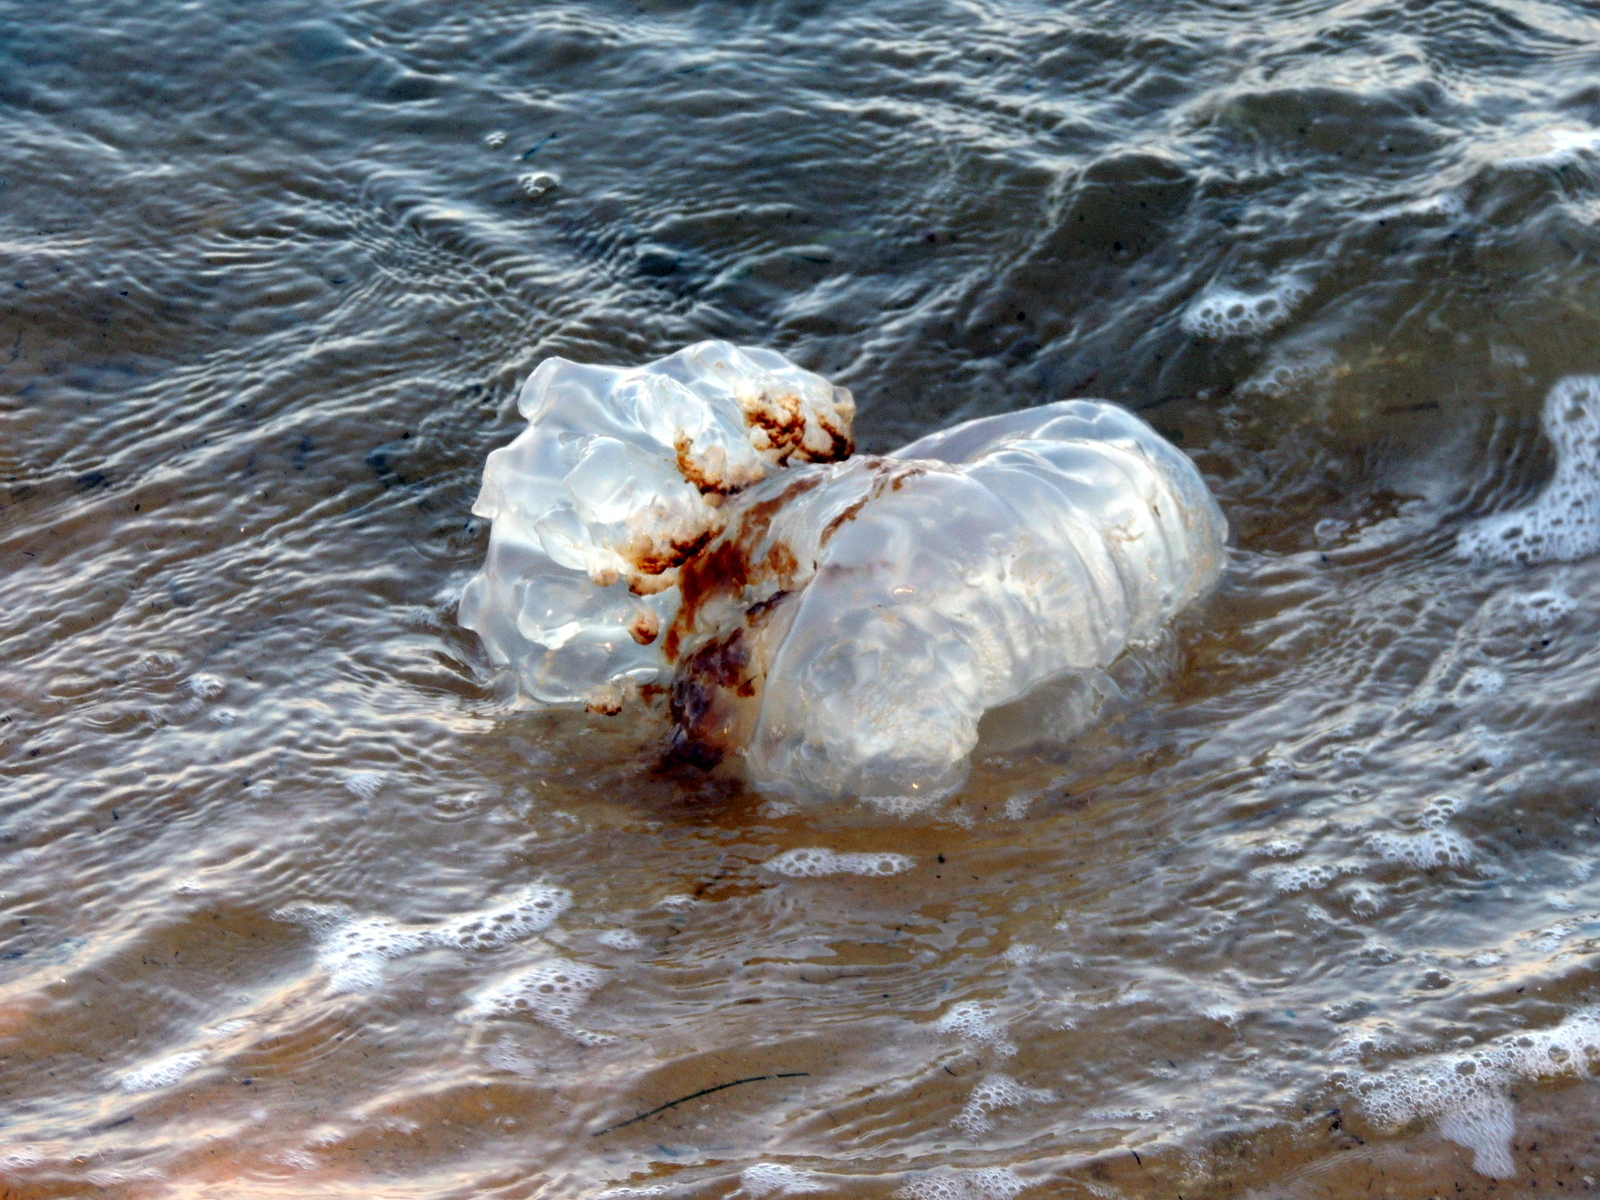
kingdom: Animalia
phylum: Cnidaria
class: Scyphozoa
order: Rhizostomeae
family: Rhizostomatidae
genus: Rhopilema
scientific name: Rhopilema verrilli
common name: Mushroom cap jellyfish
